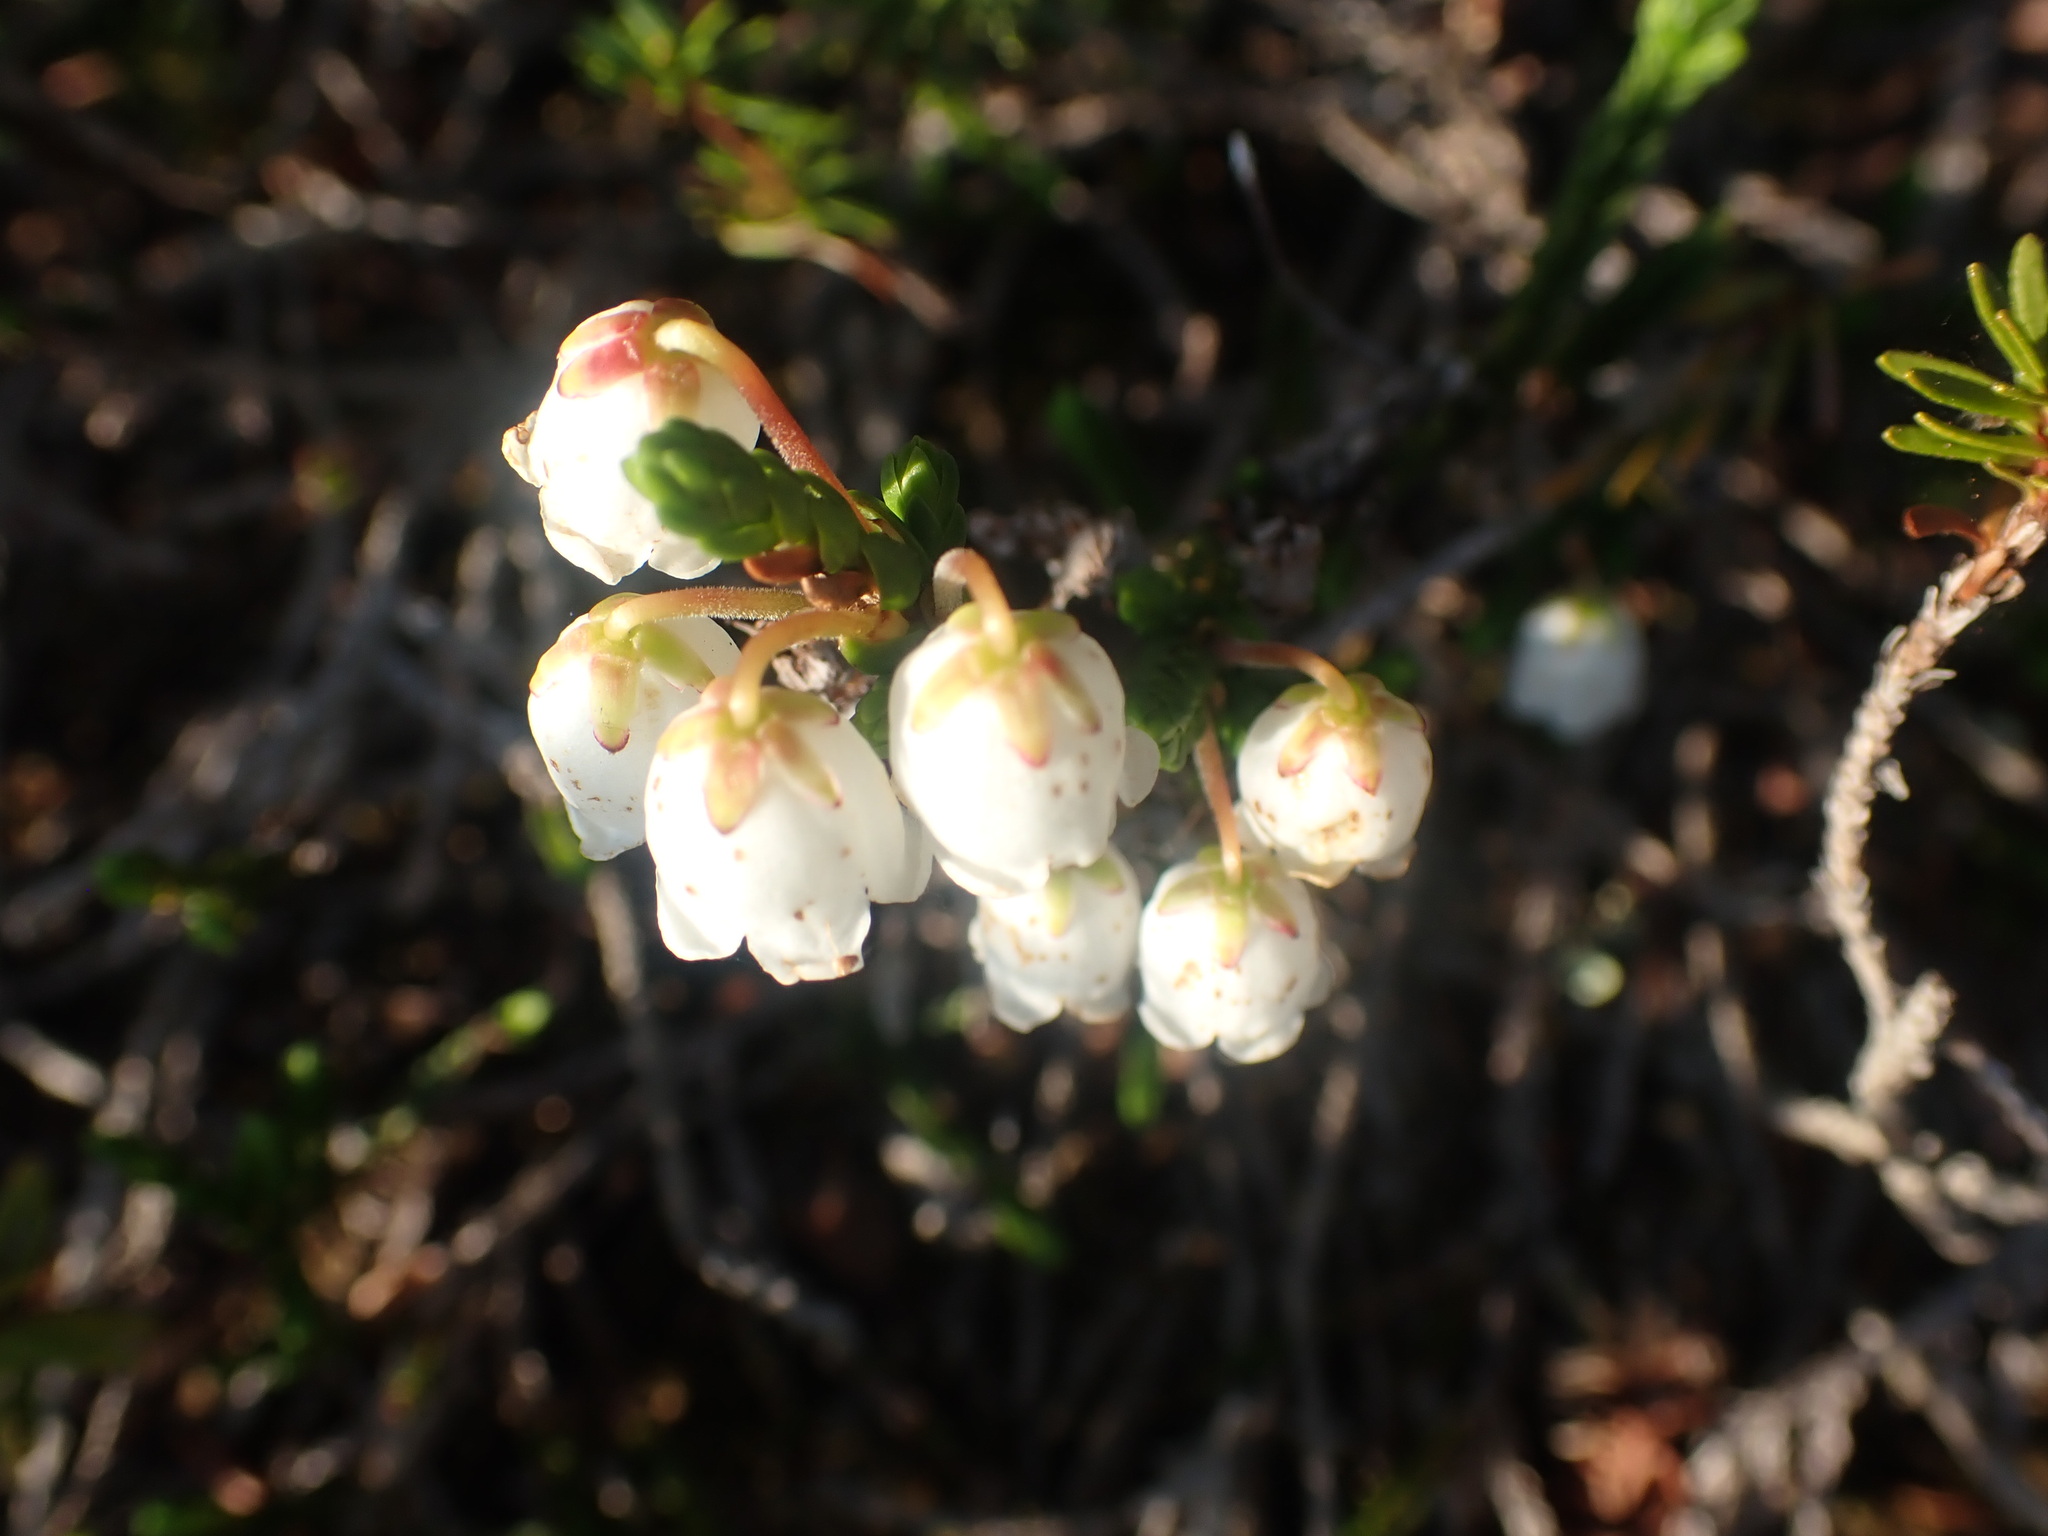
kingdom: Plantae
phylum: Tracheophyta
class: Magnoliopsida
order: Ericales
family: Ericaceae
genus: Cassiope
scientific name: Cassiope mertensiana
